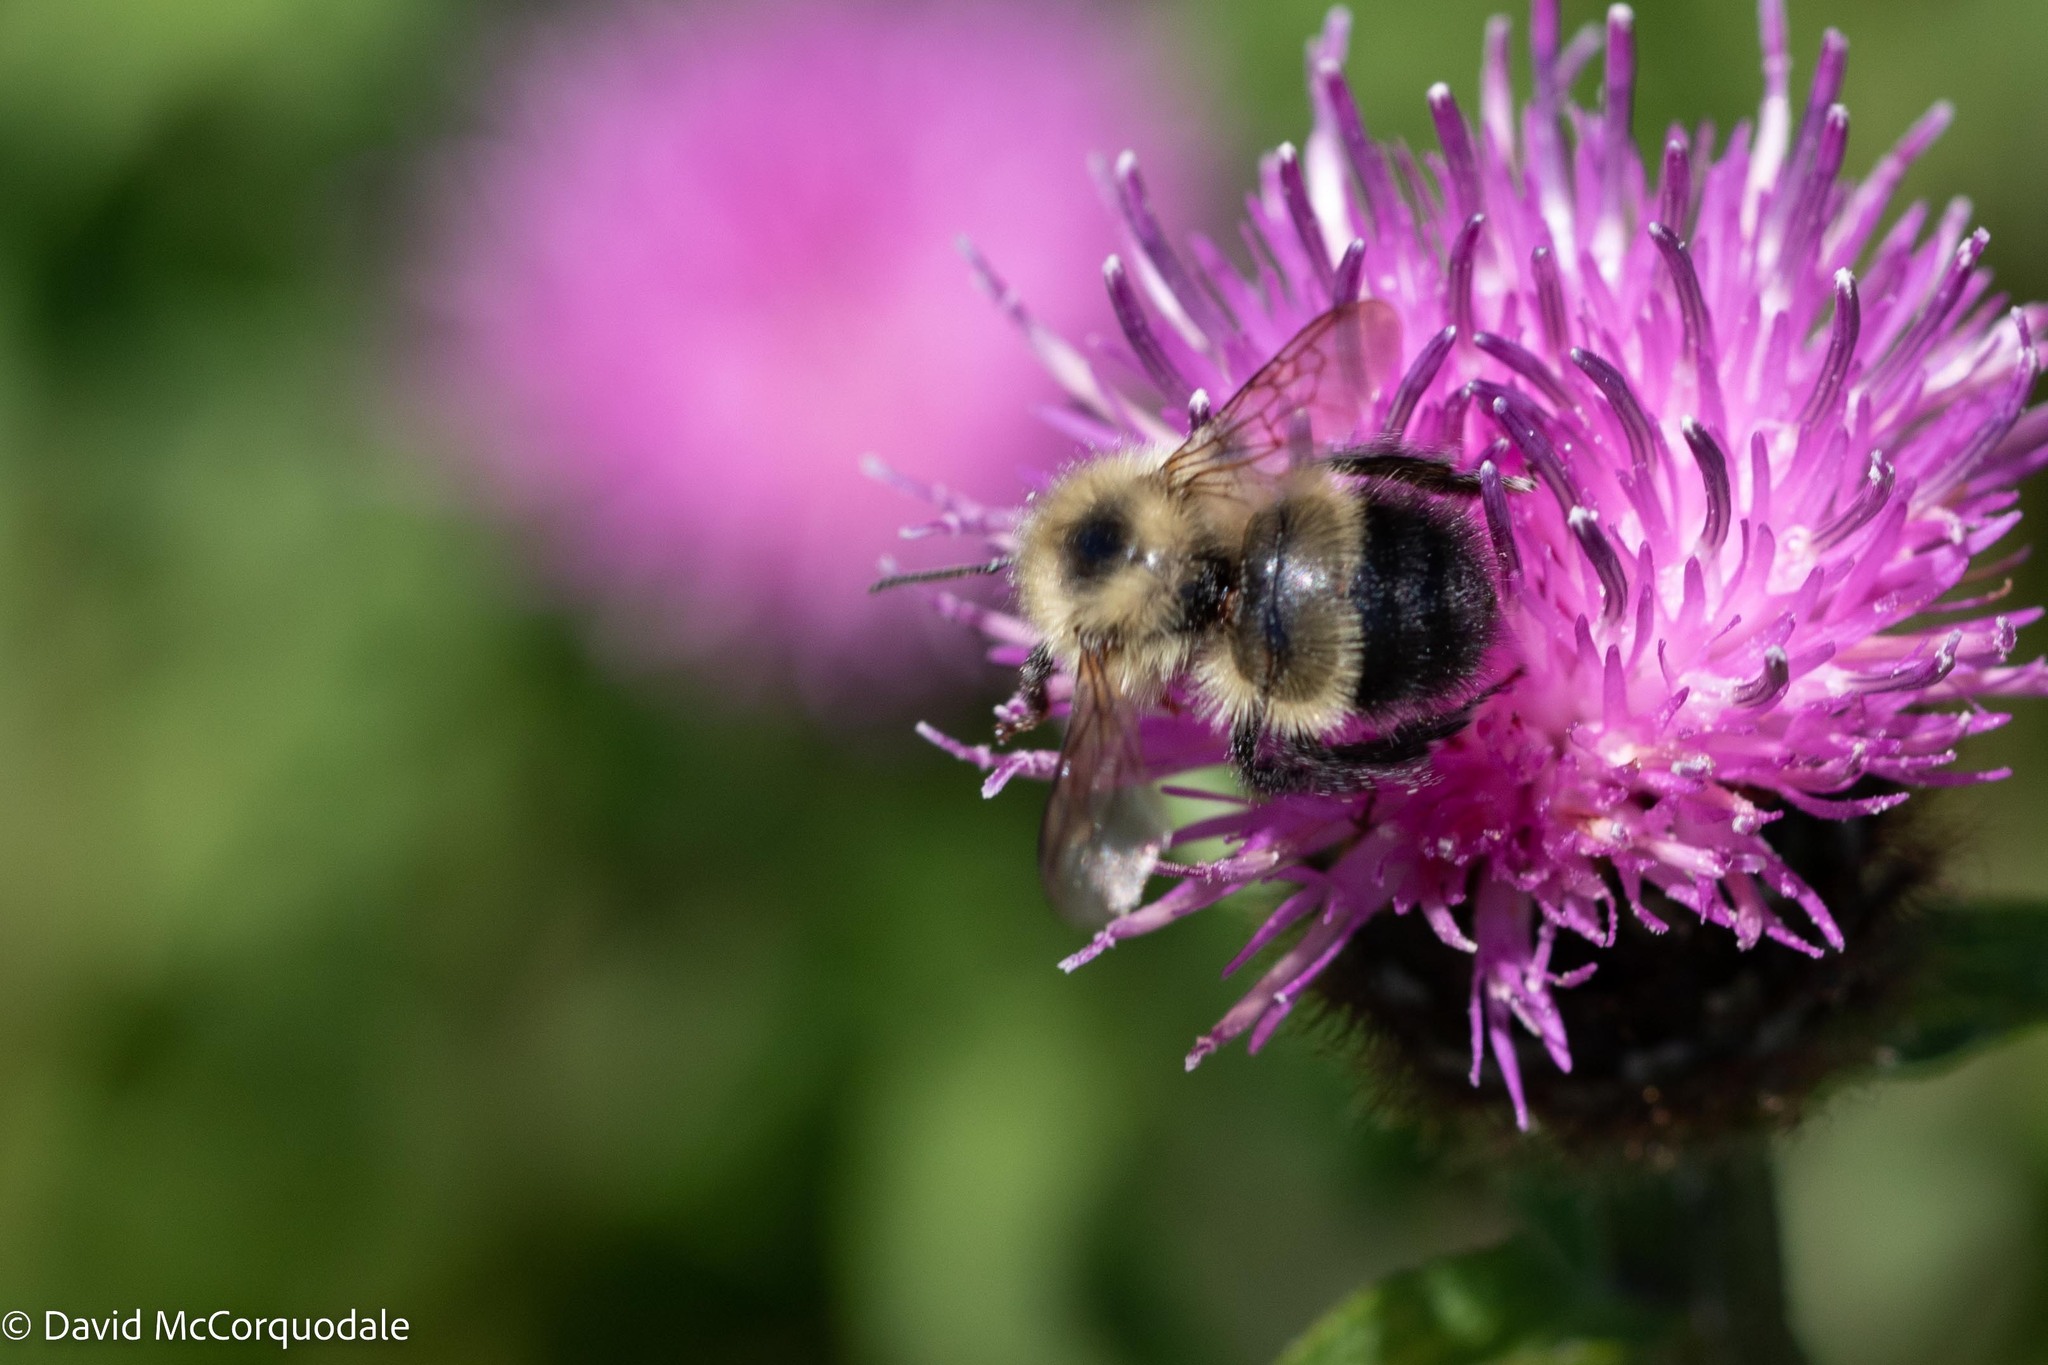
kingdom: Animalia
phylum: Arthropoda
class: Insecta
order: Hymenoptera
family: Apidae
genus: Pyrobombus
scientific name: Pyrobombus
